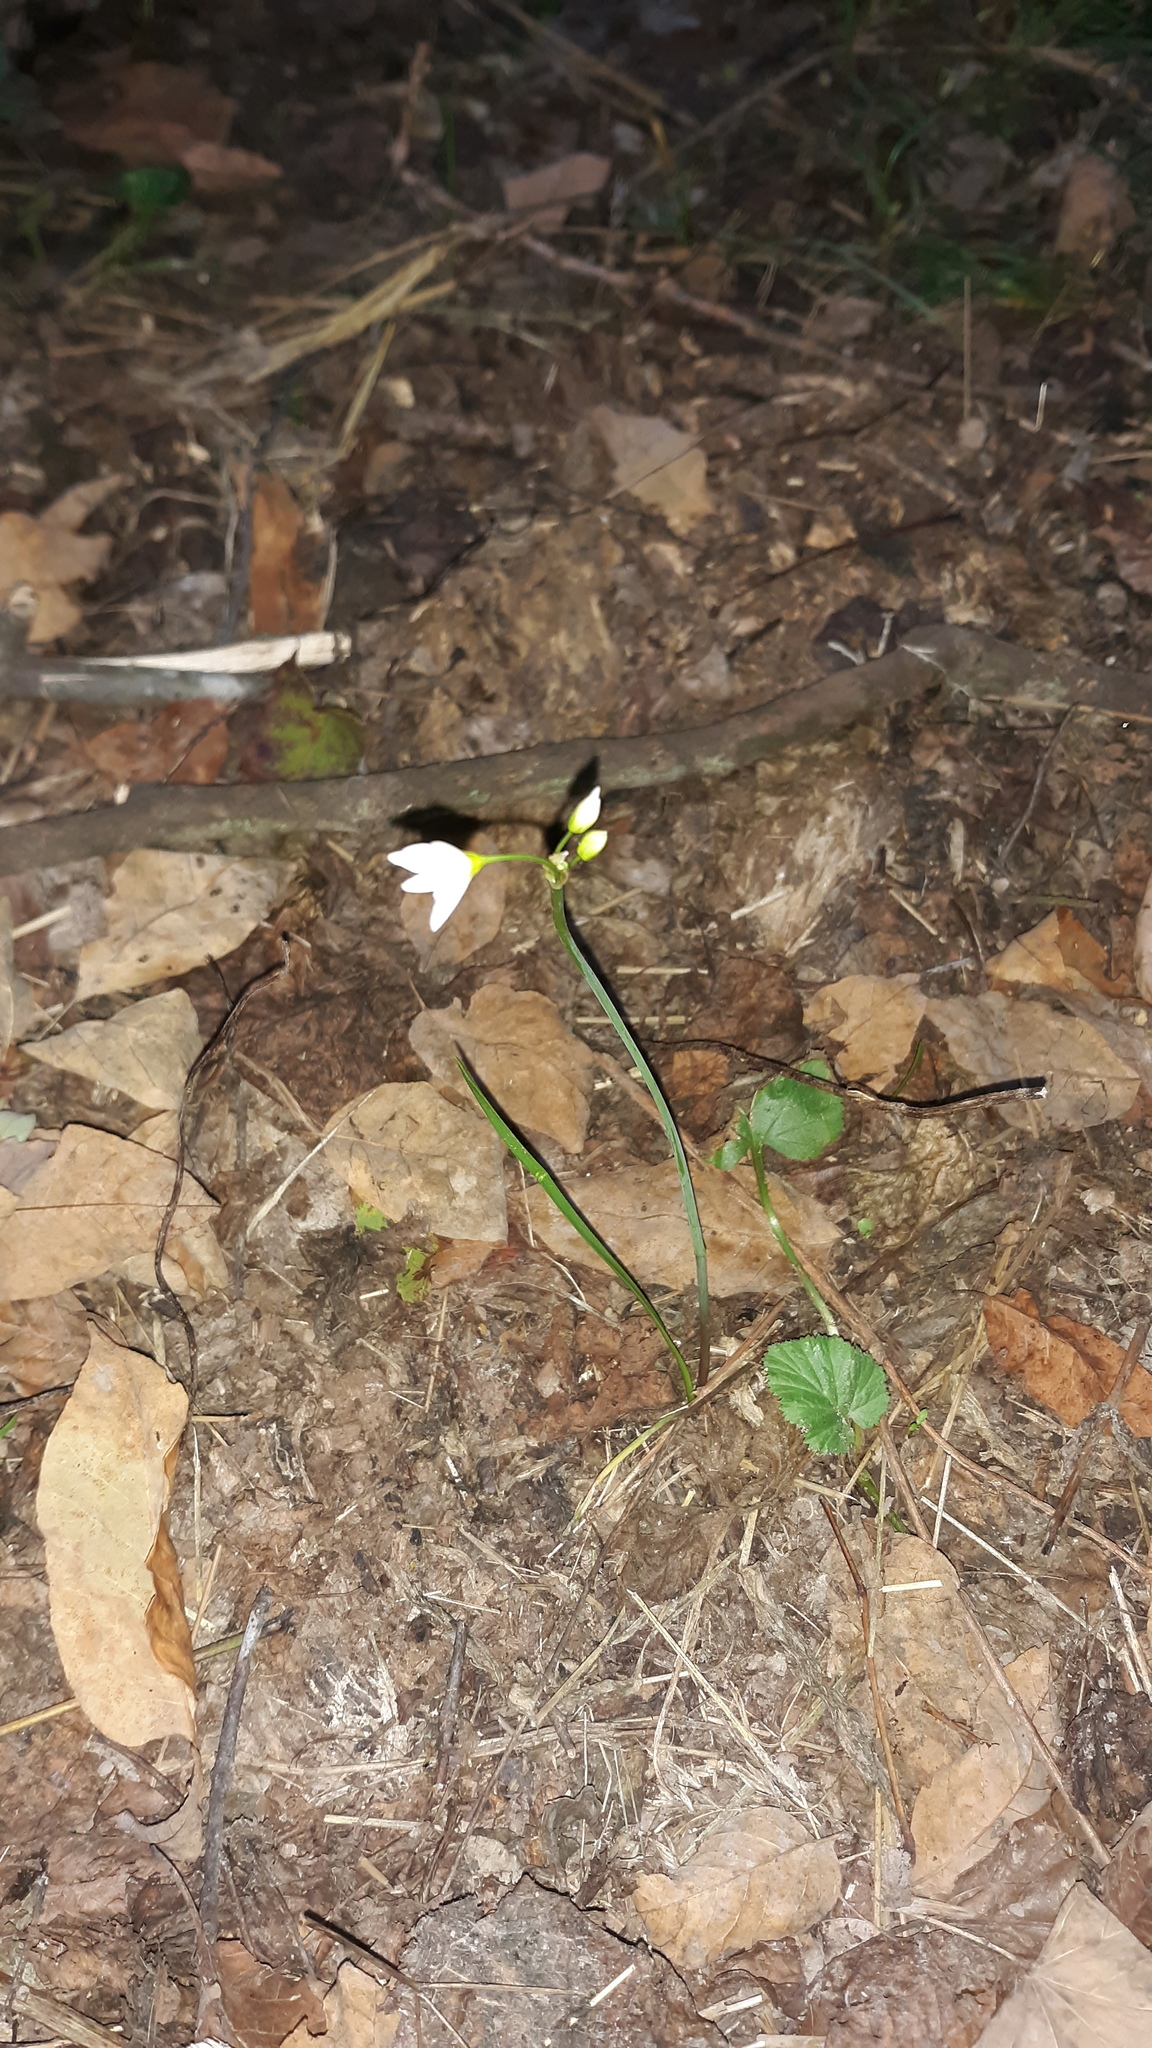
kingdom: Plantae
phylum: Tracheophyta
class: Liliopsida
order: Asparagales
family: Amaryllidaceae
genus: Nothoscordum
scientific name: Nothoscordum bivalve
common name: Crow-poison
